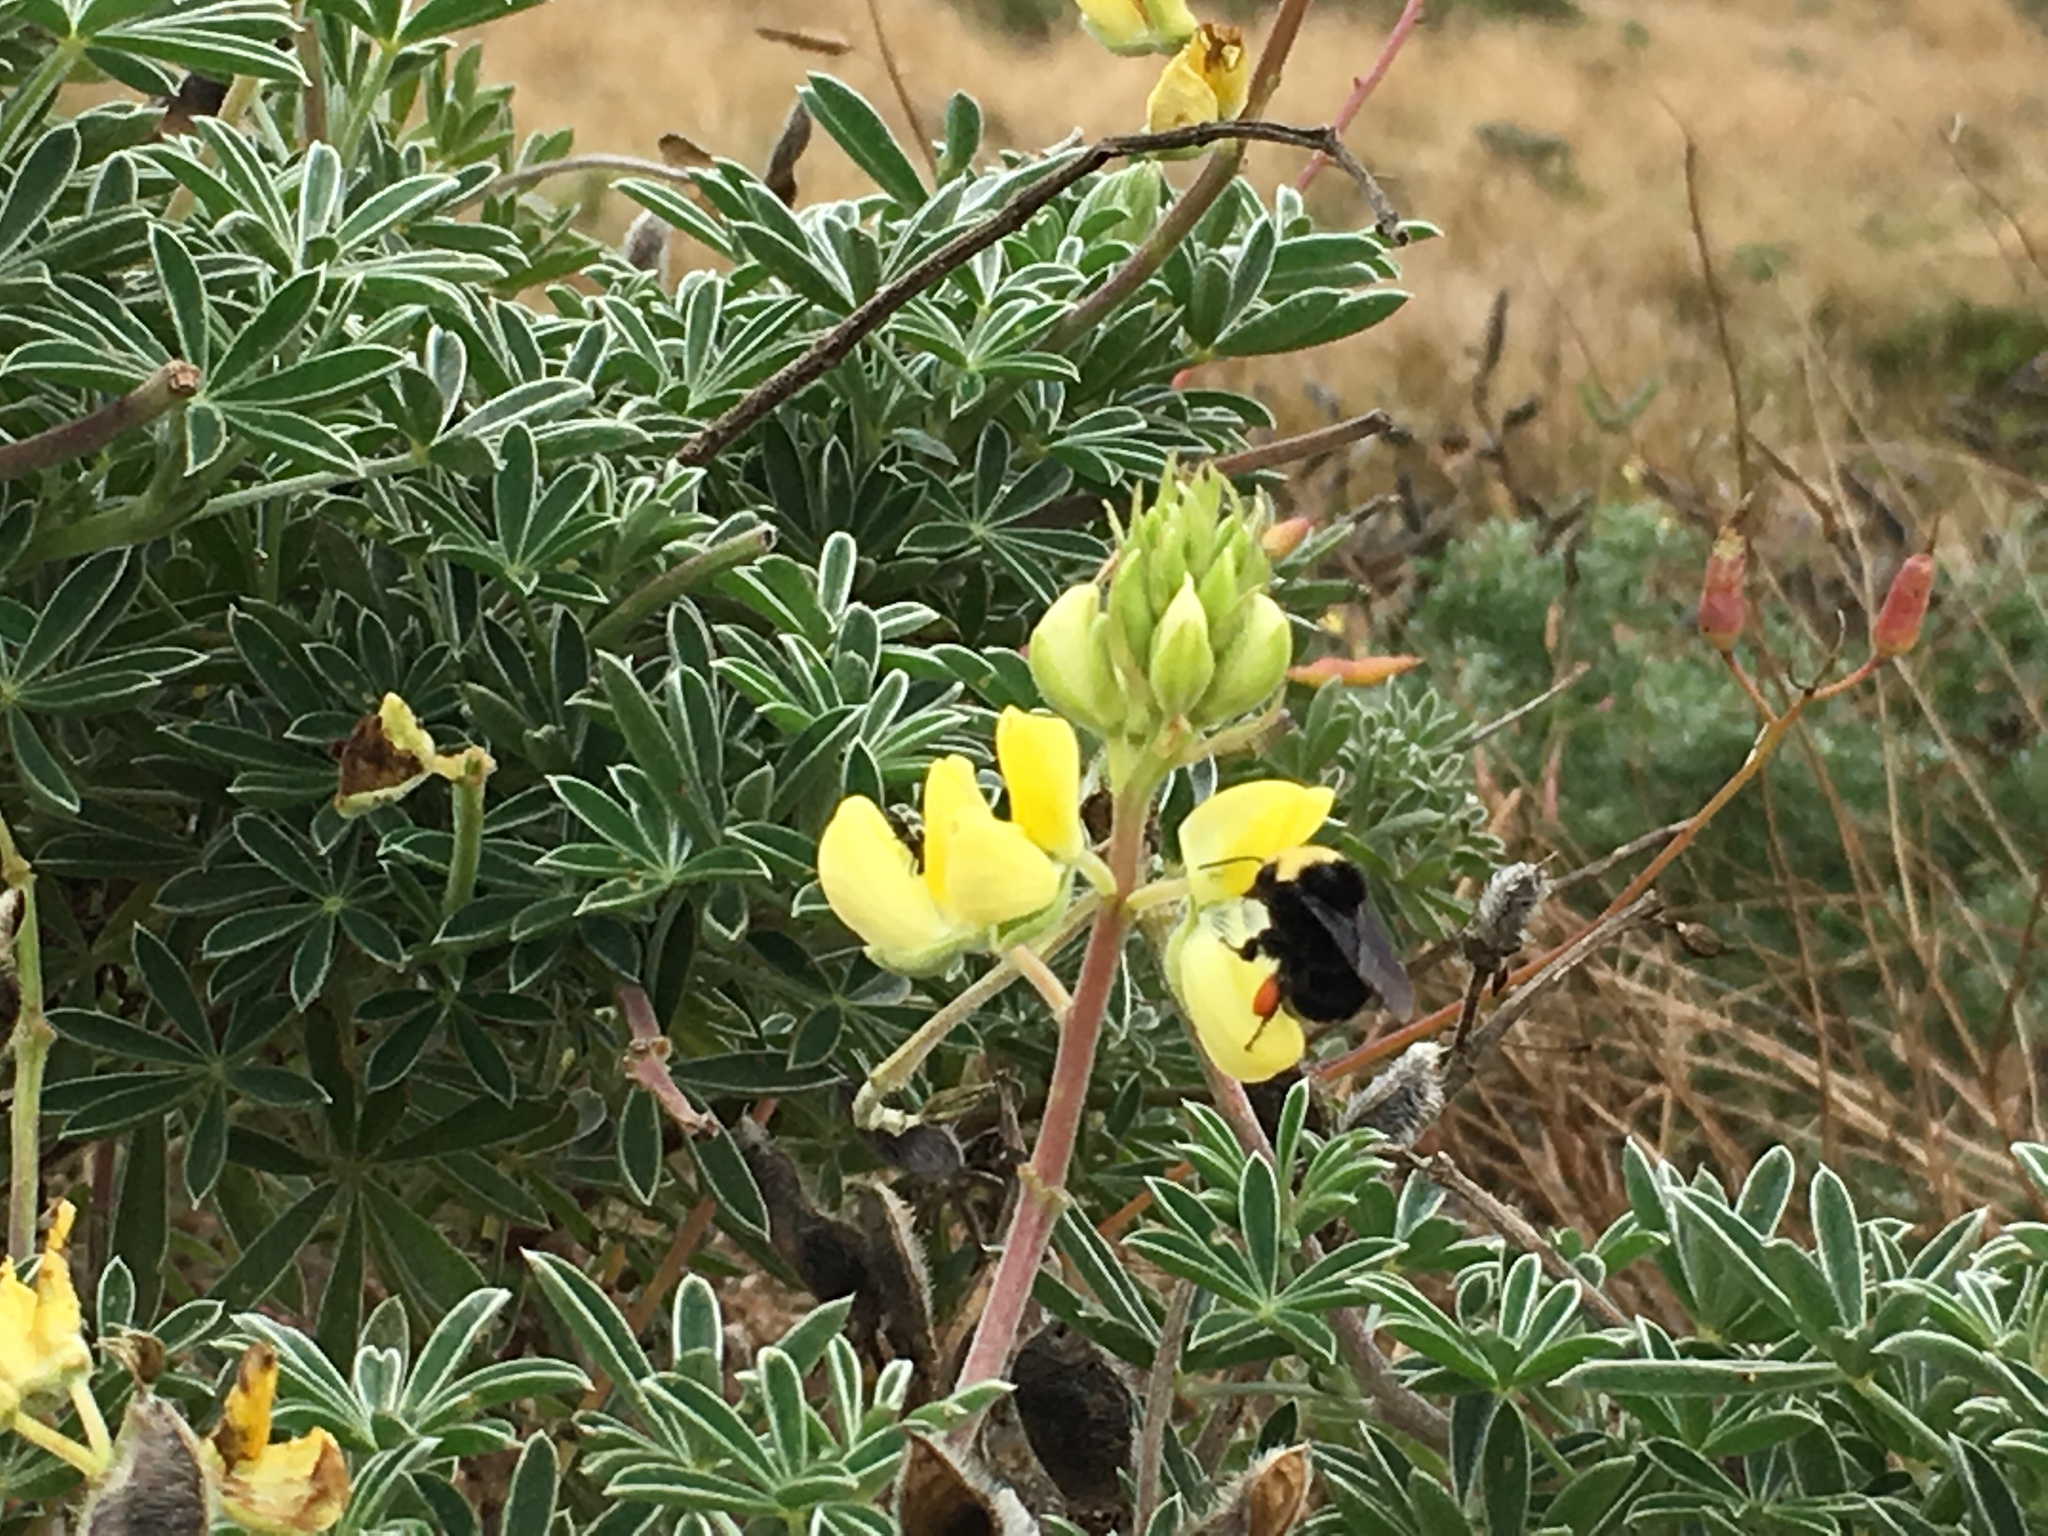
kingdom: Plantae
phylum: Tracheophyta
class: Magnoliopsida
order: Fabales
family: Fabaceae
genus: Lupinus
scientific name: Lupinus arboreus
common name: Yellow bush lupine
